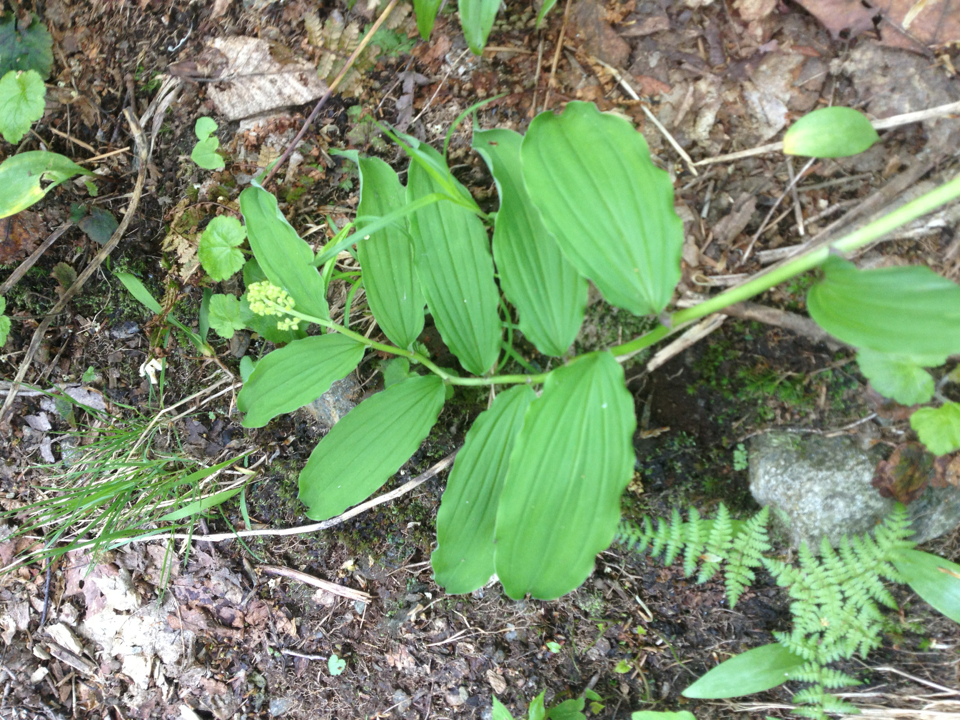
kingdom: Plantae
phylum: Tracheophyta
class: Liliopsida
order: Asparagales
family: Asparagaceae
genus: Maianthemum
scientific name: Maianthemum racemosum
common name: False spikenard
